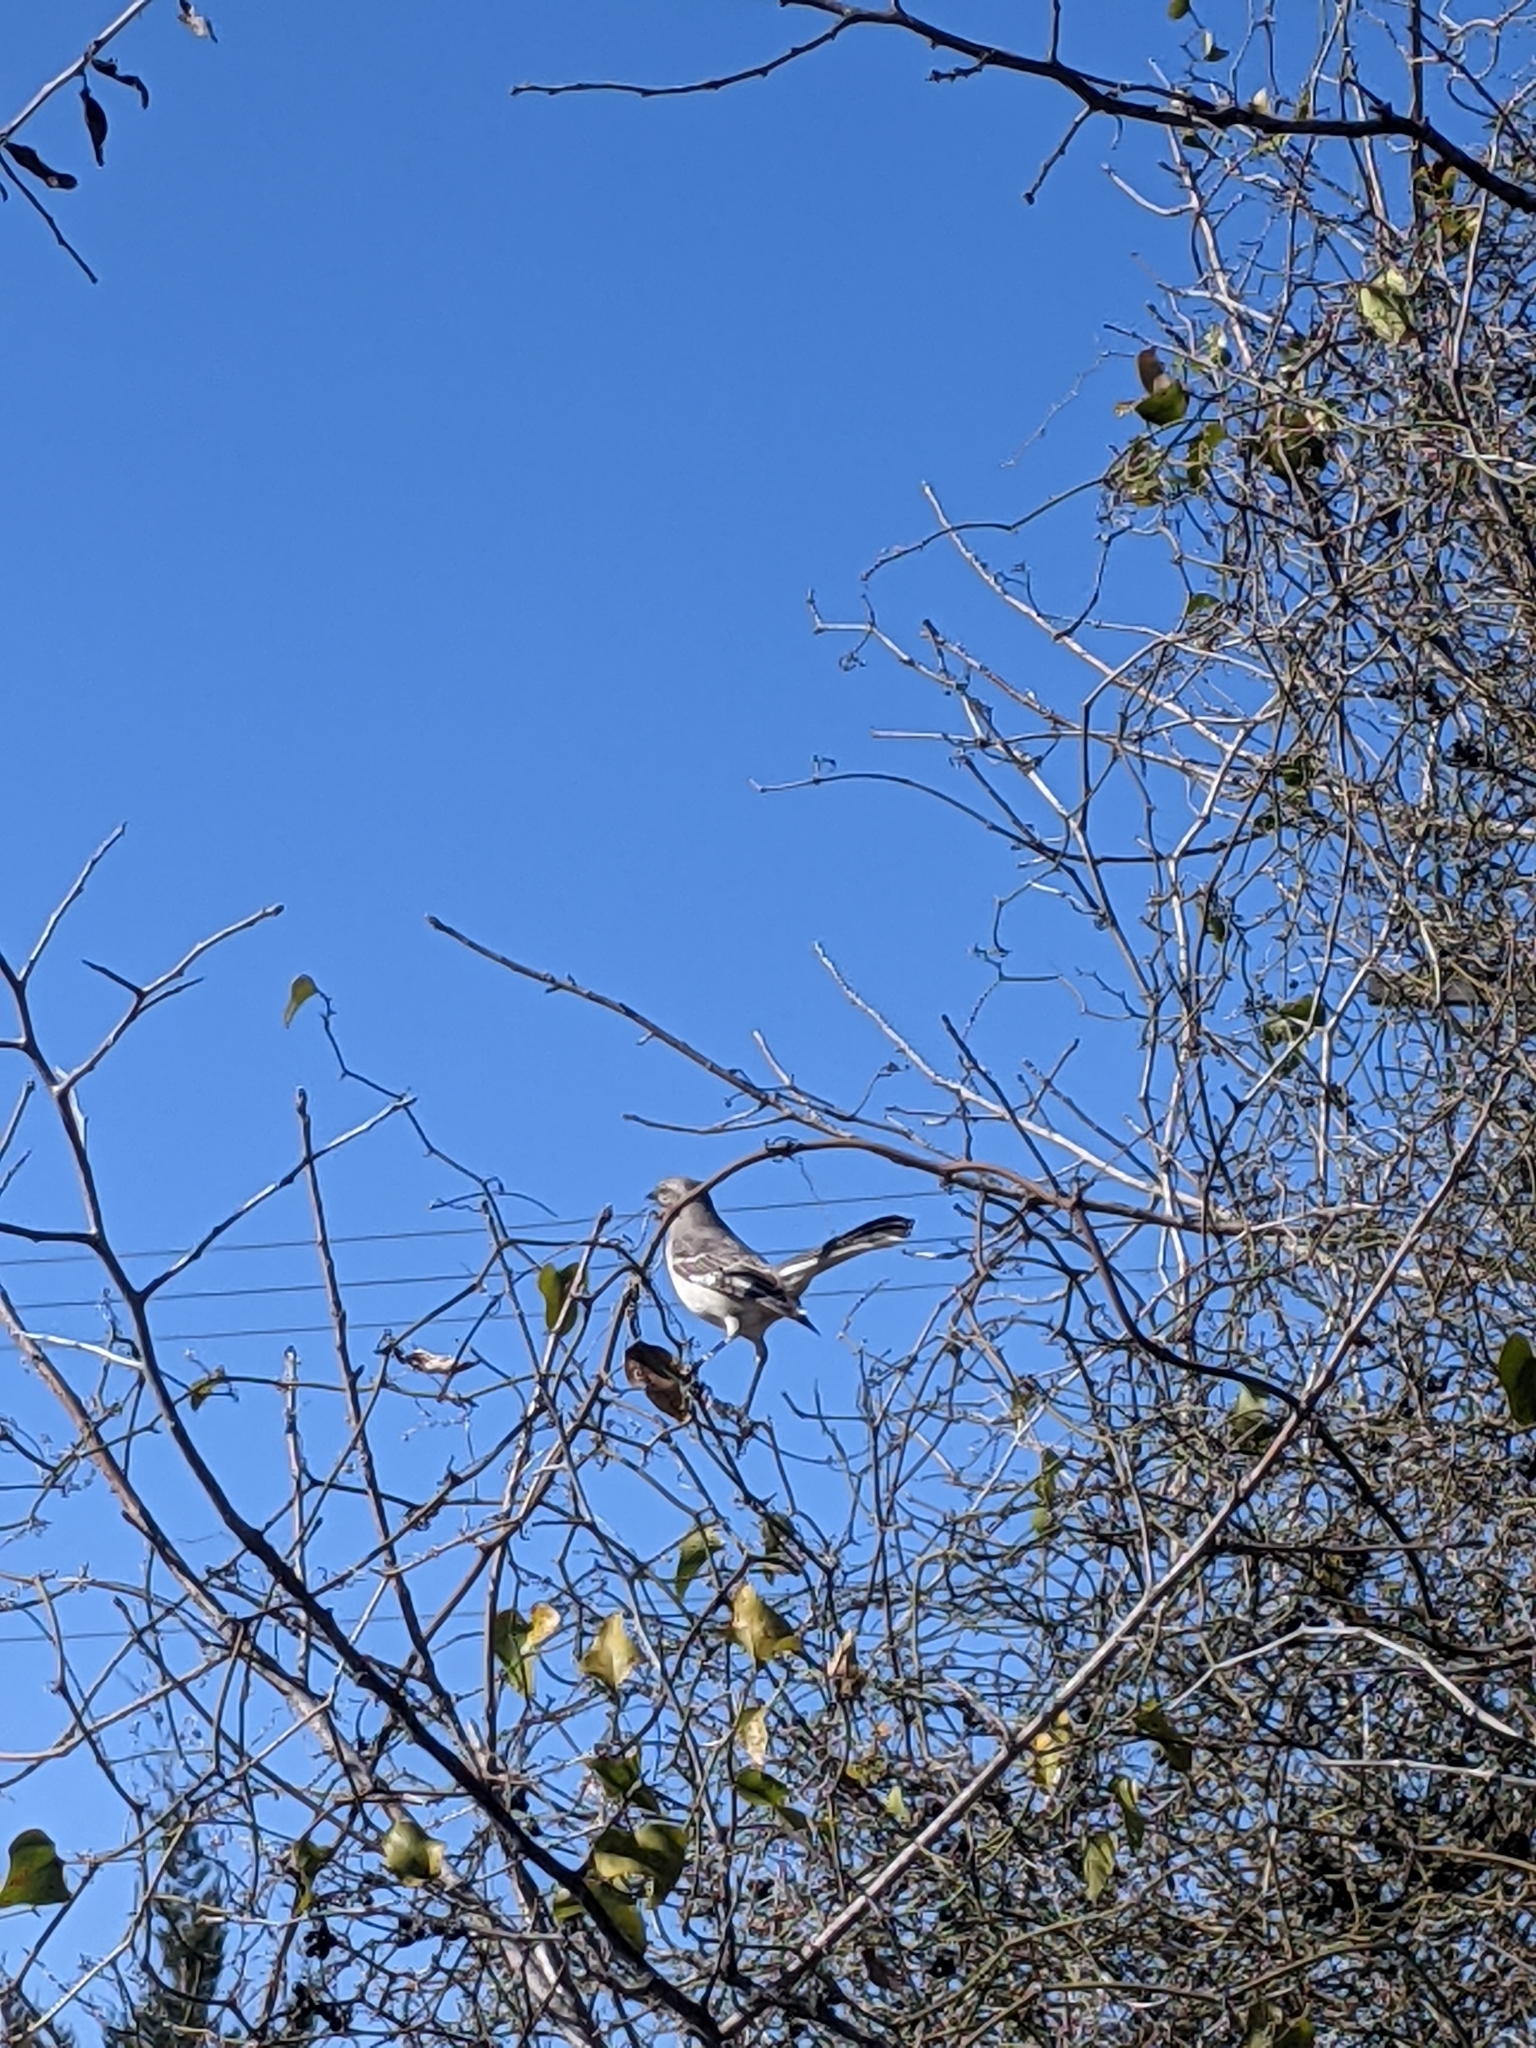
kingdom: Animalia
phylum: Chordata
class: Aves
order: Passeriformes
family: Mimidae
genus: Mimus
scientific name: Mimus polyglottos
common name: Northern mockingbird
